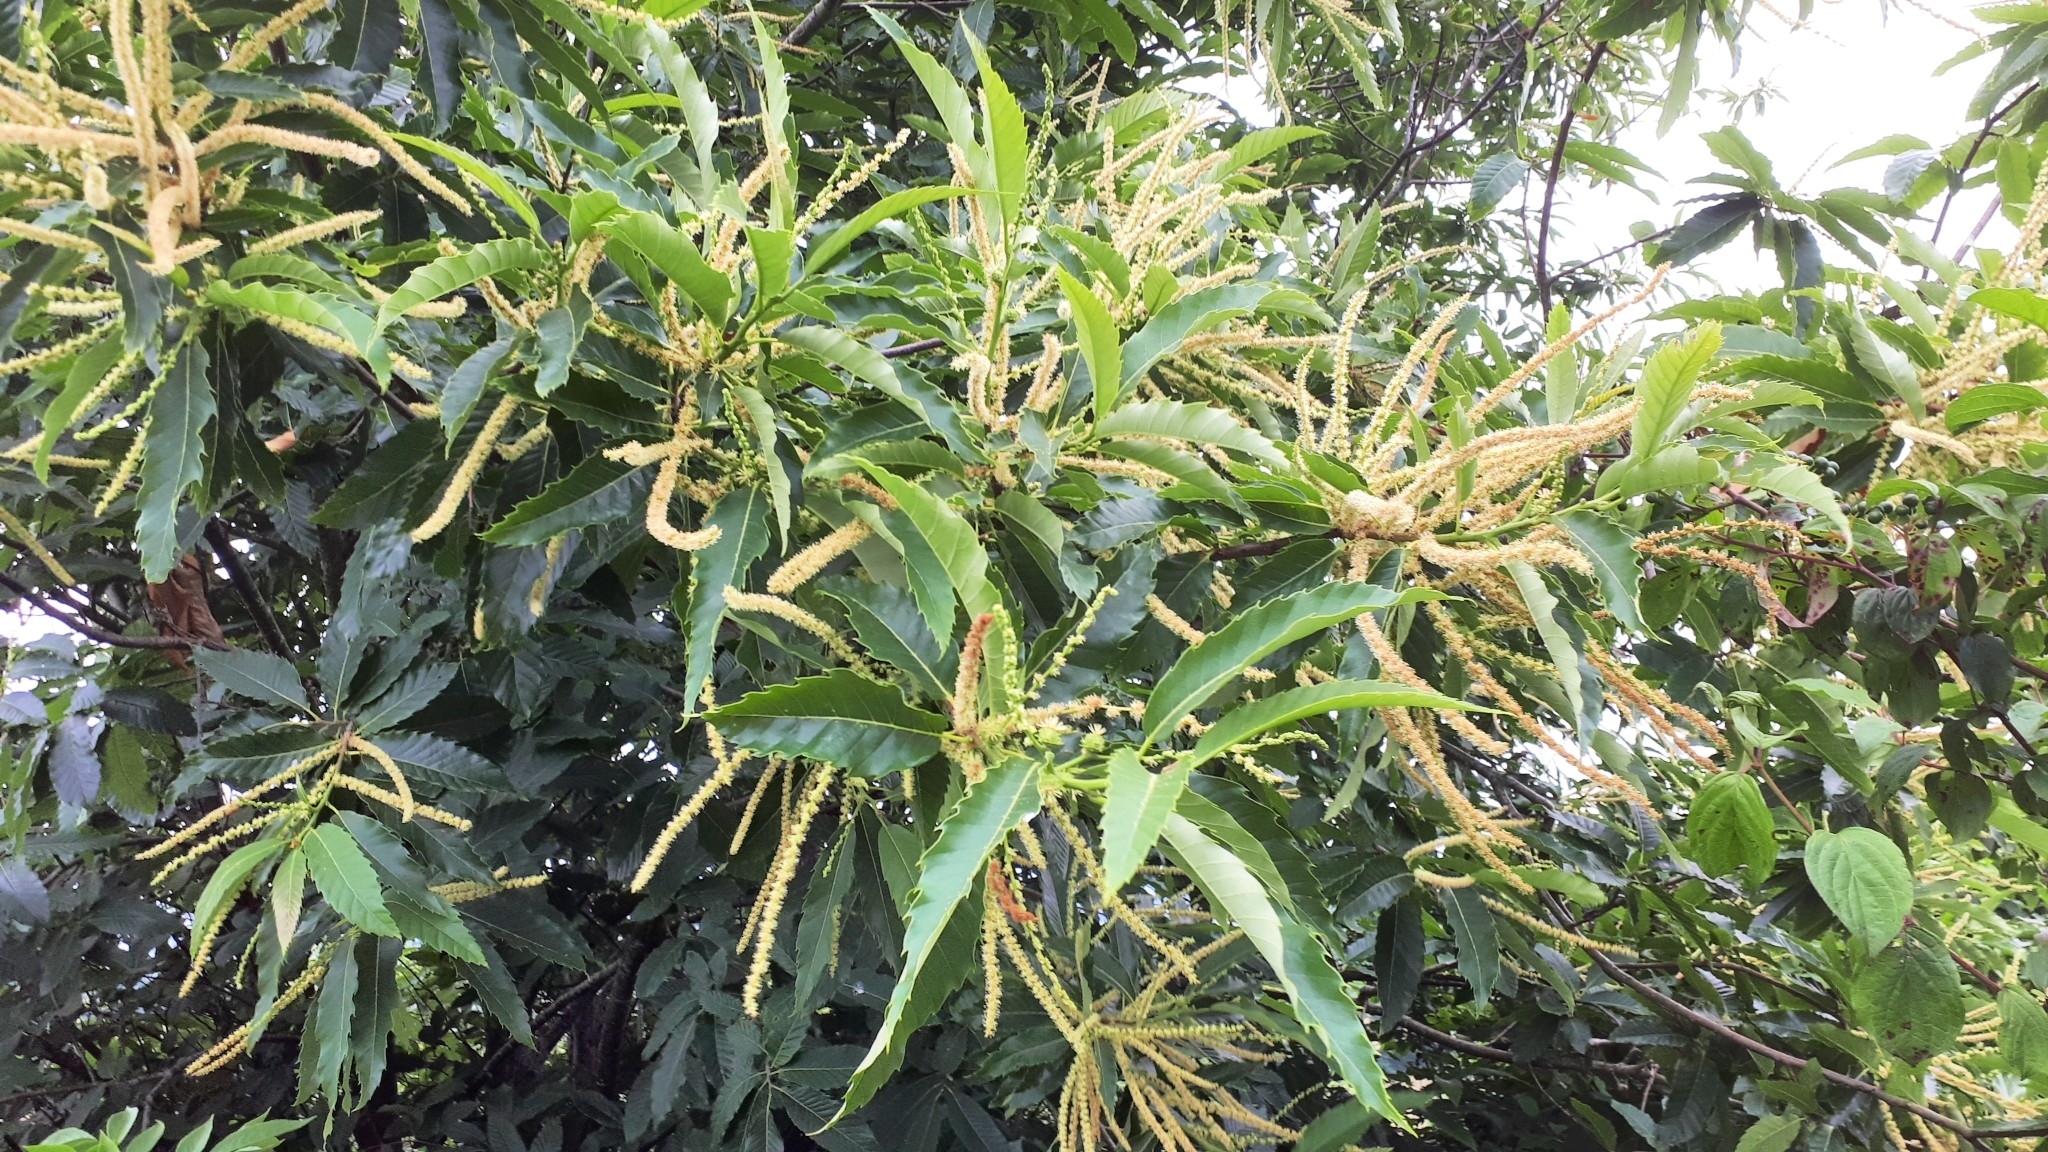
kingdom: Plantae
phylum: Tracheophyta
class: Magnoliopsida
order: Fagales
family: Fagaceae
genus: Castanea
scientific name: Castanea sativa
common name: Sweet chestnut
